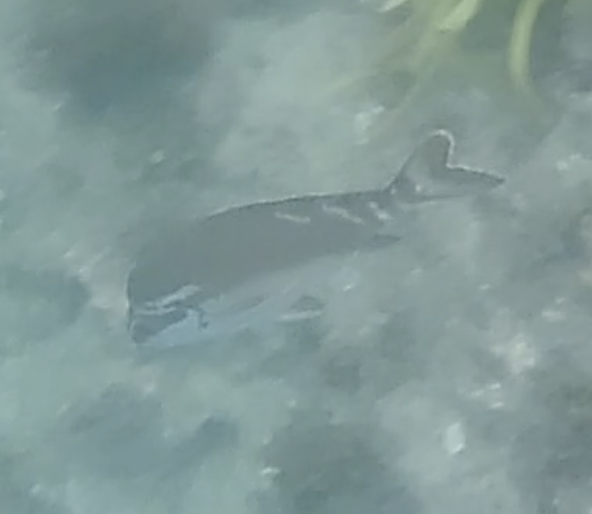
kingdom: Animalia
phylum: Chordata
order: Perciformes
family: Latridae
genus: Morwong
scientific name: Morwong fuscus
